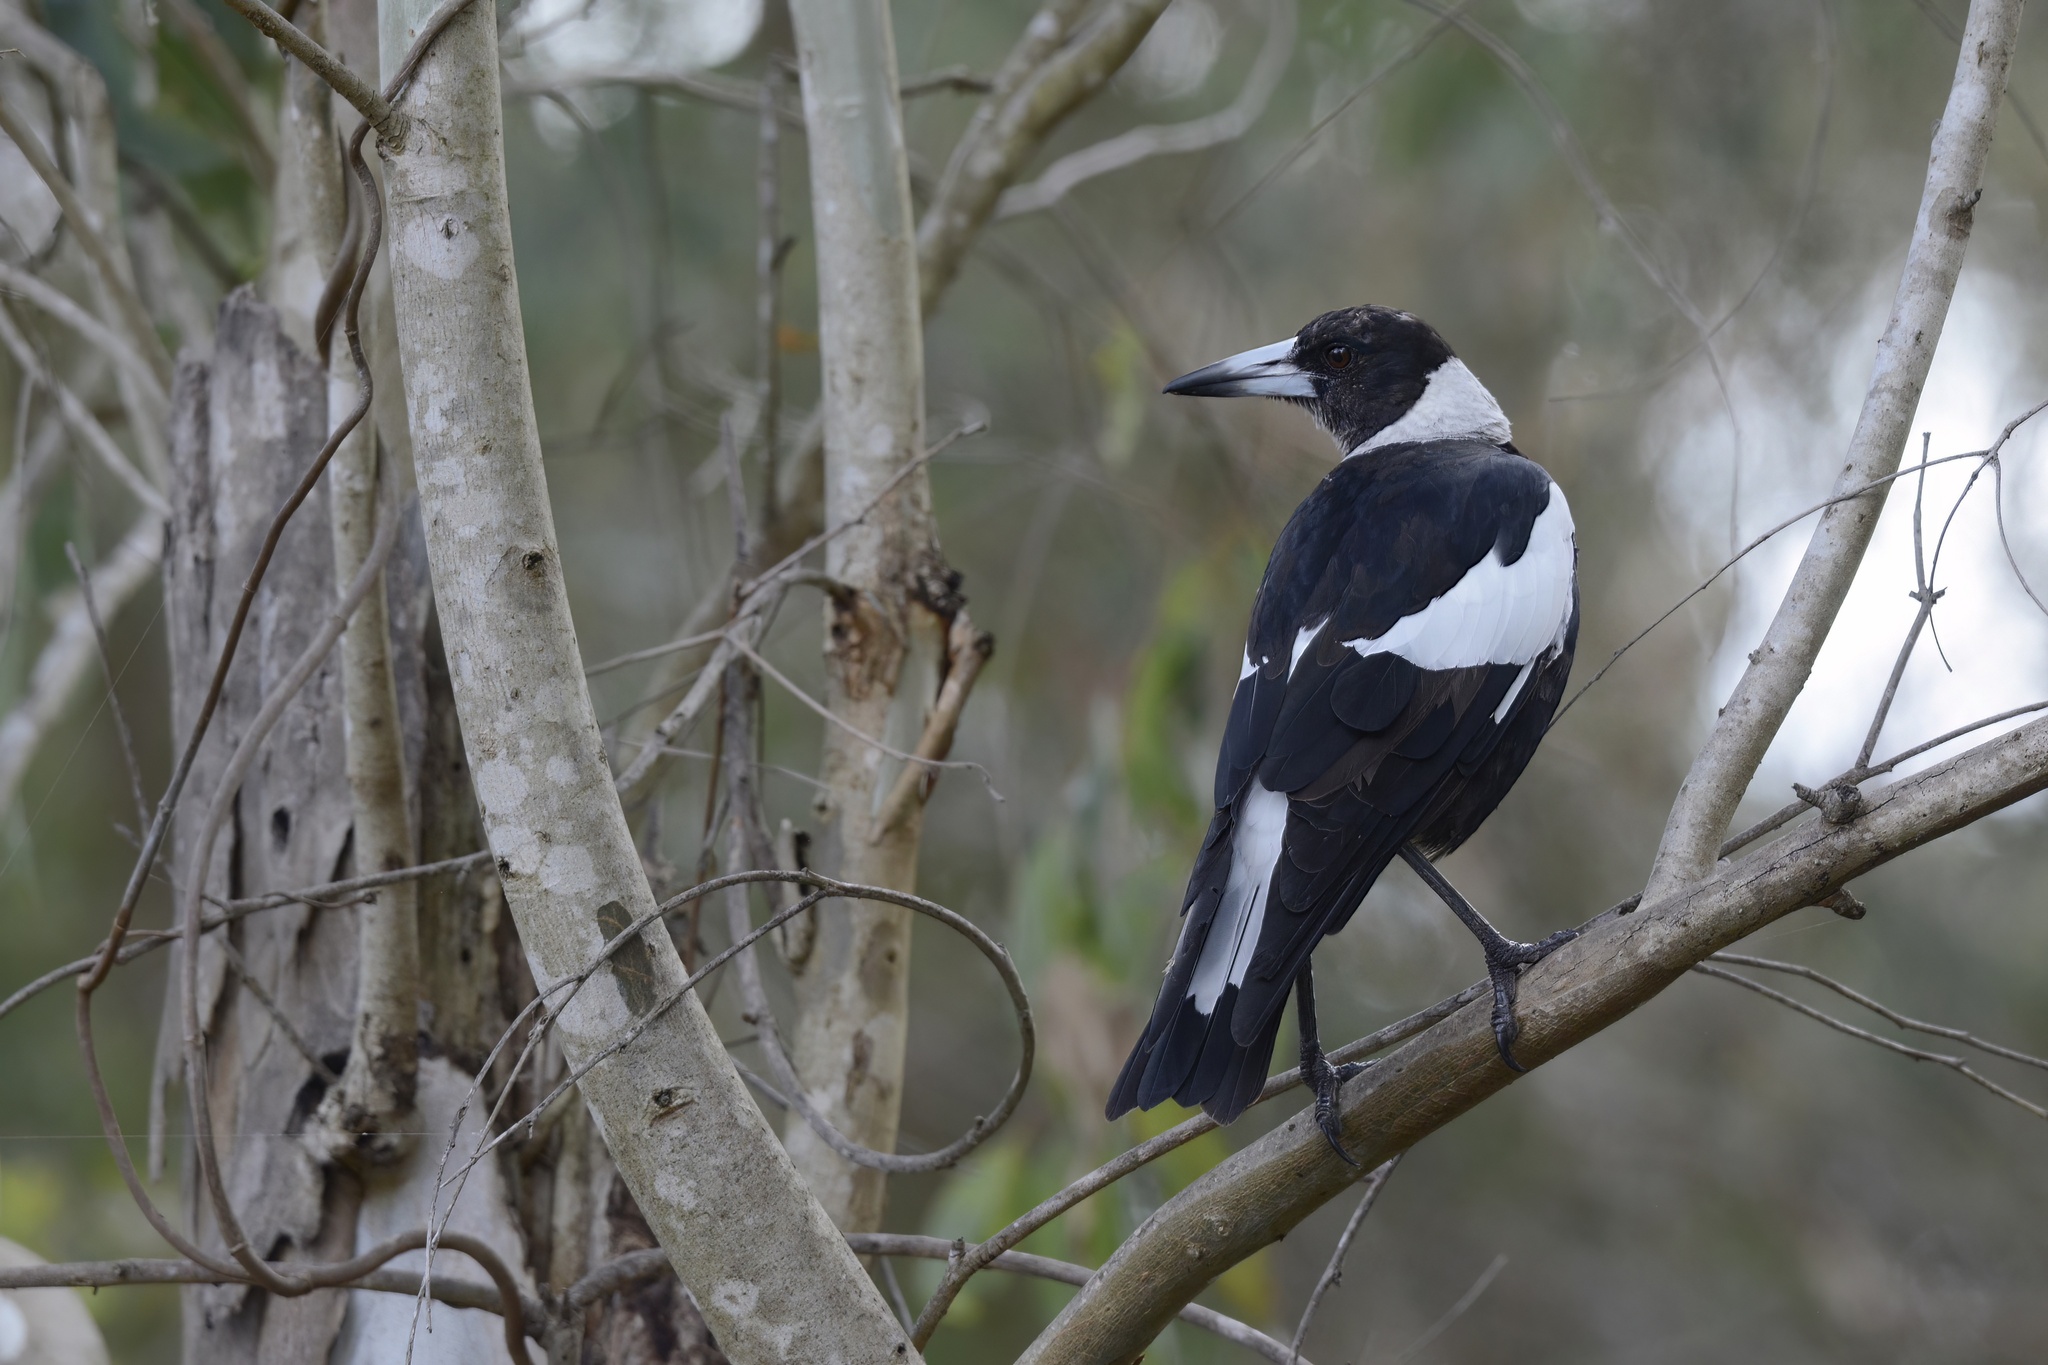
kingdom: Animalia
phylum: Chordata
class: Aves
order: Passeriformes
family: Cracticidae
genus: Gymnorhina
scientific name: Gymnorhina tibicen
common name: Australian magpie
